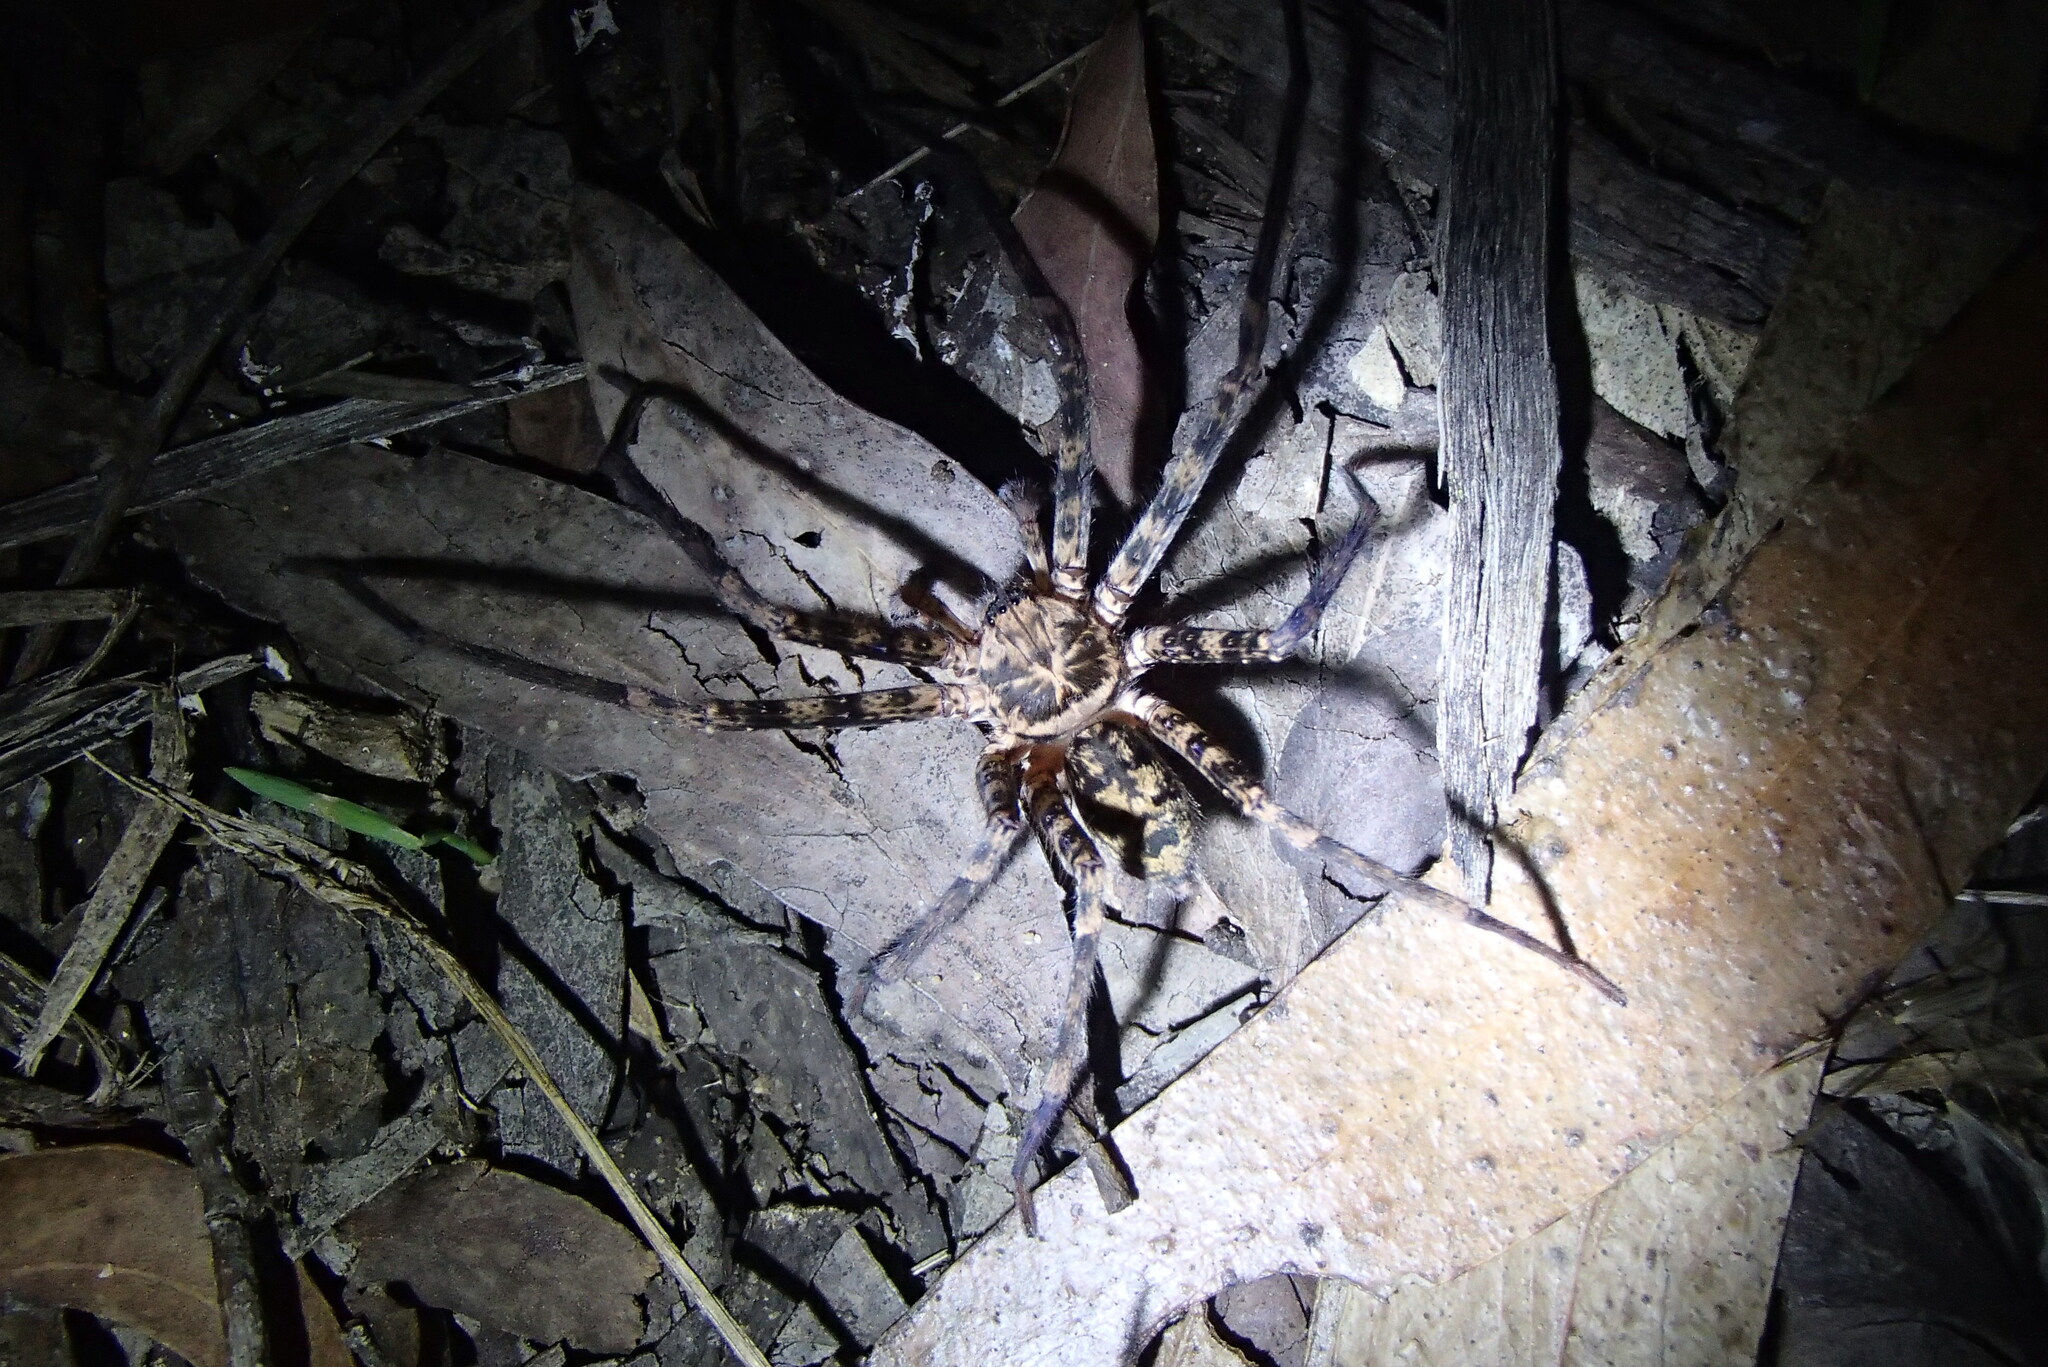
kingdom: Animalia
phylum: Arthropoda
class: Arachnida
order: Araneae
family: Sparassidae
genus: Heteropoda
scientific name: Heteropoda longipes
